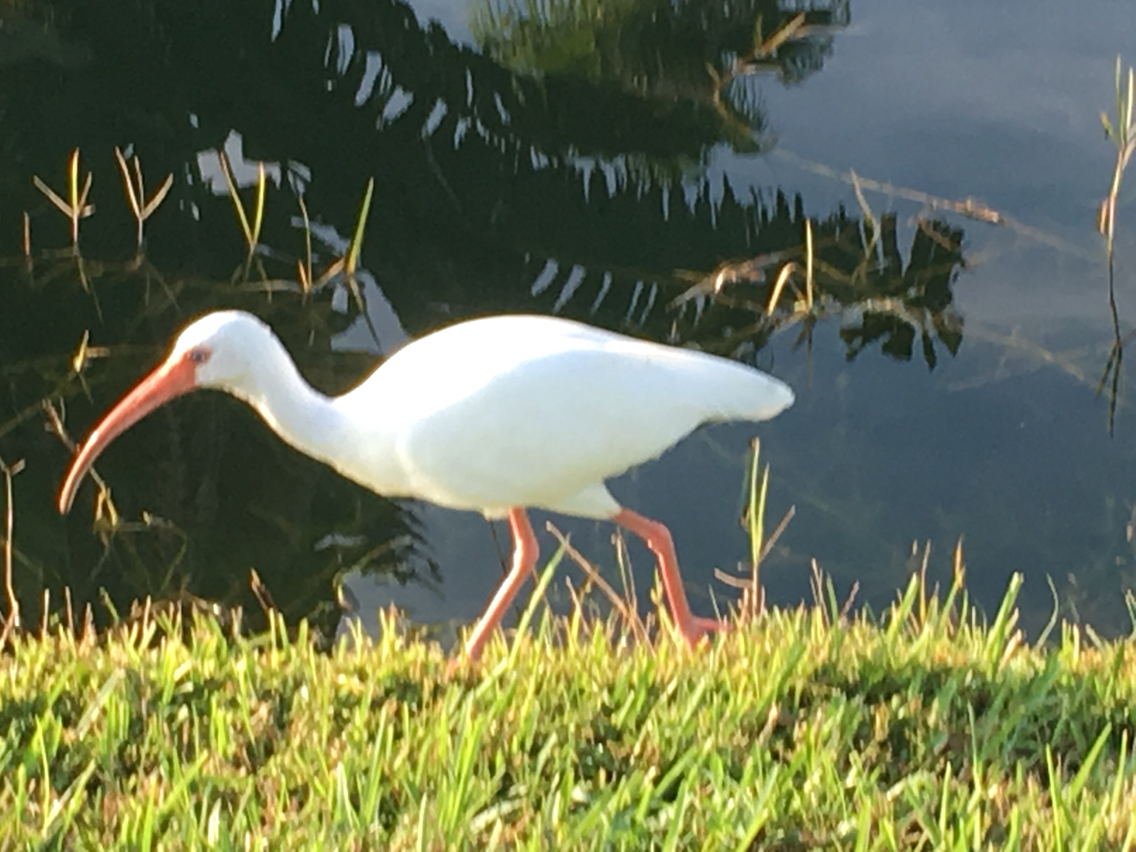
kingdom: Animalia
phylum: Chordata
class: Aves
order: Pelecaniformes
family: Threskiornithidae
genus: Eudocimus
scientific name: Eudocimus albus
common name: White ibis
